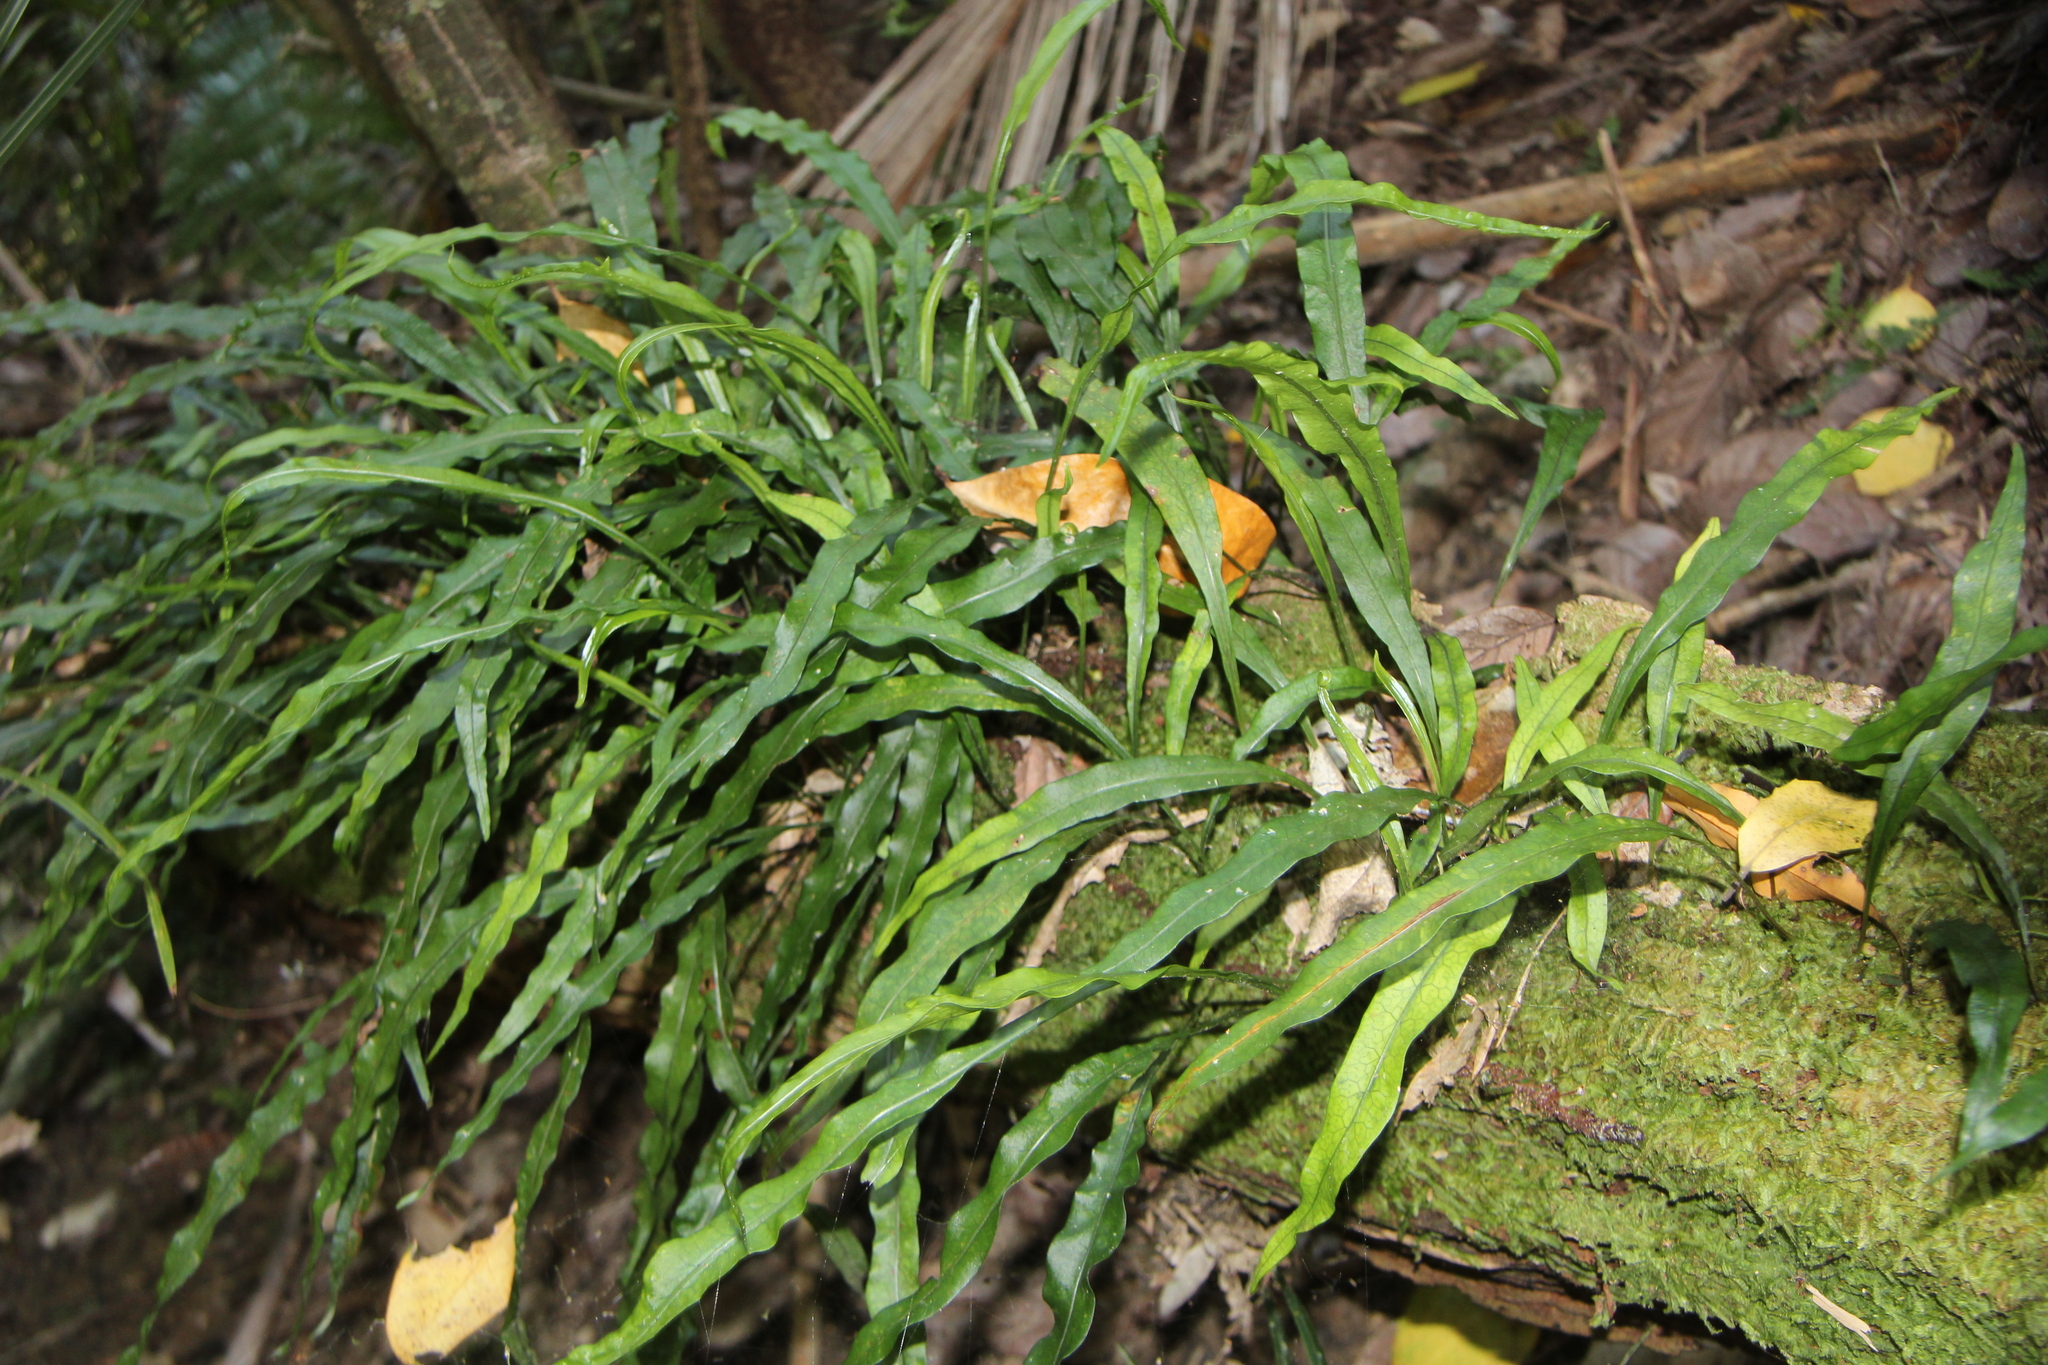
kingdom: Plantae
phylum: Tracheophyta
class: Polypodiopsida
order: Polypodiales
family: Polypodiaceae
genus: Lecanopteris
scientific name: Lecanopteris scandens
